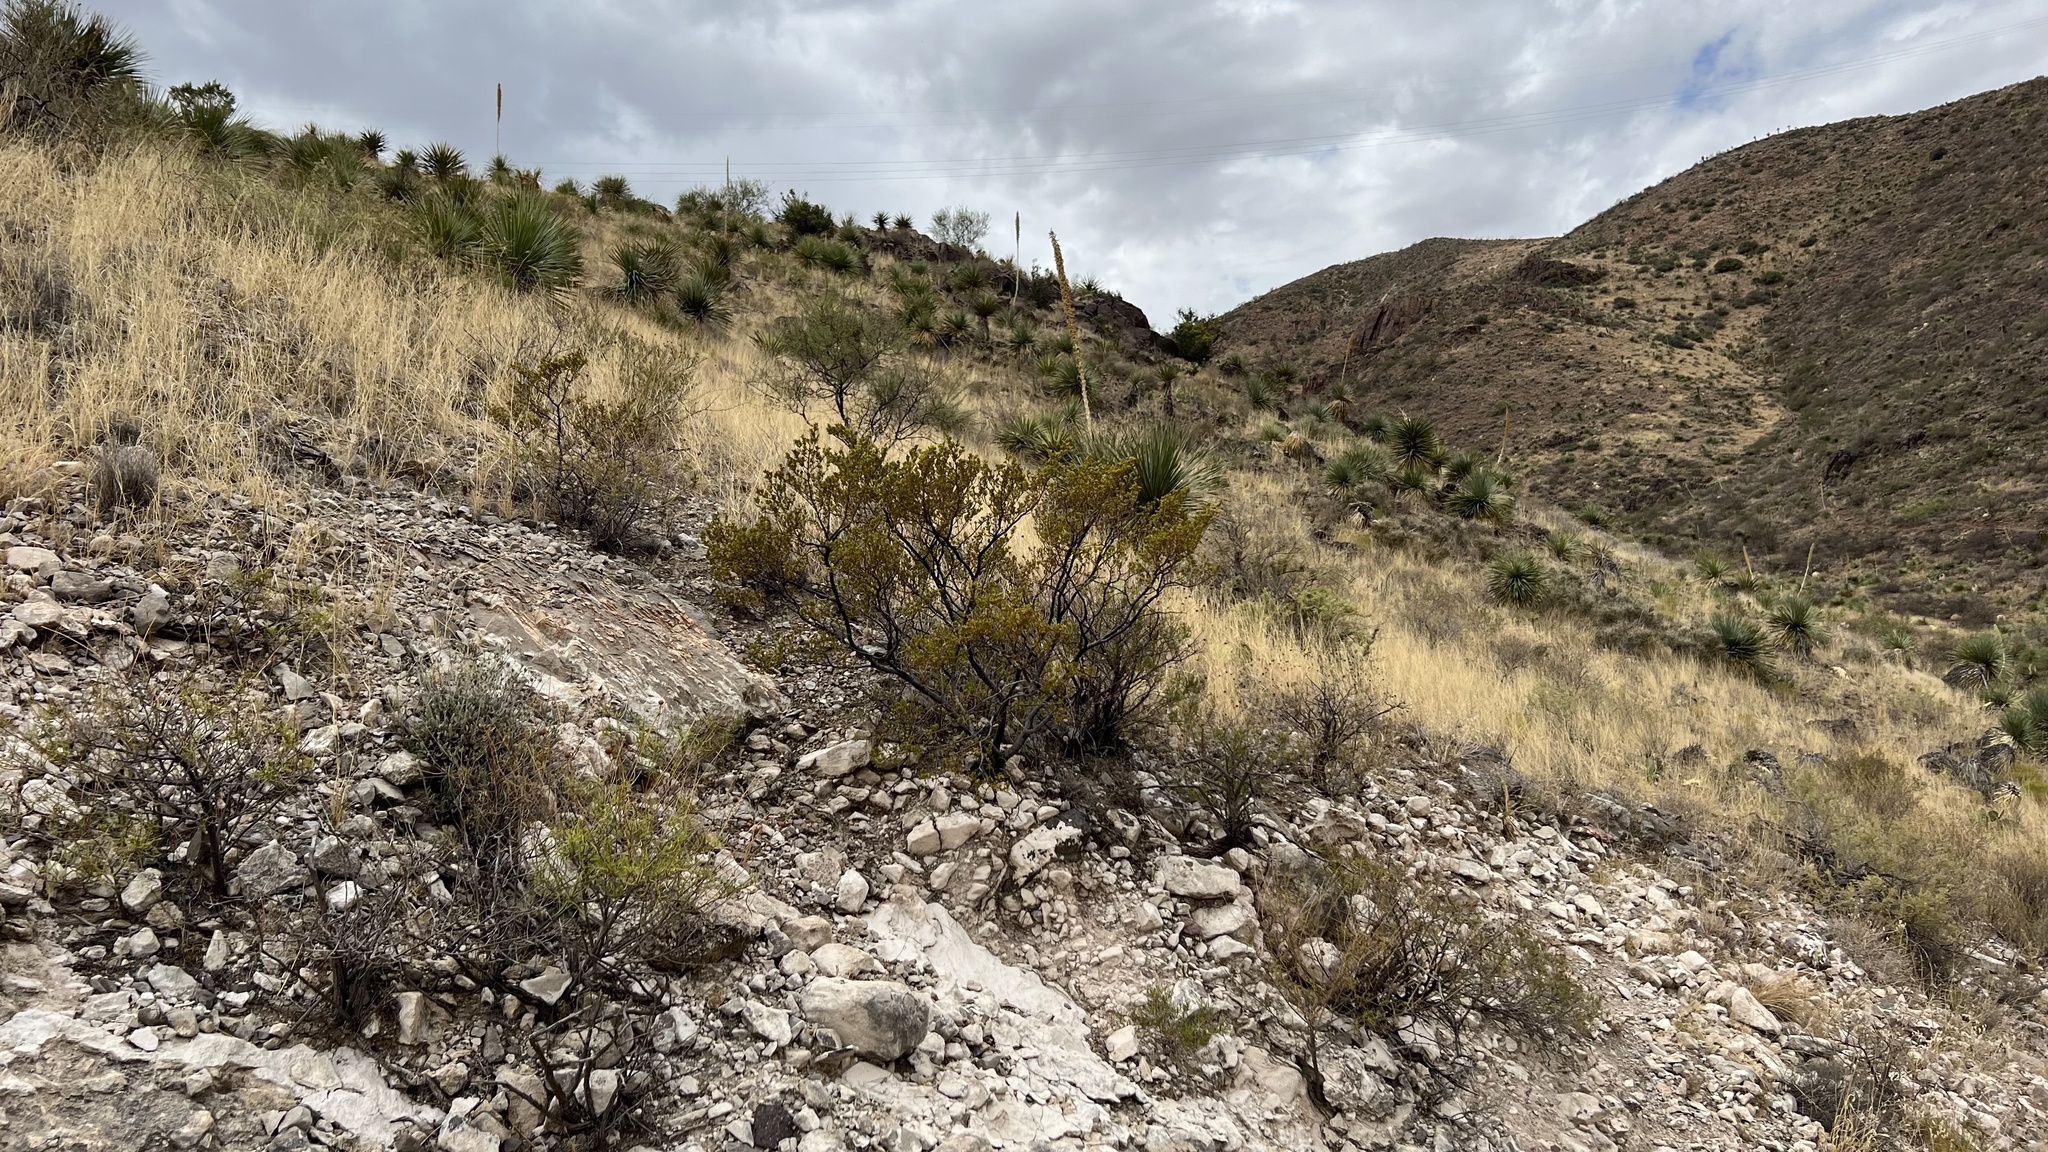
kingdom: Plantae
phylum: Tracheophyta
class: Magnoliopsida
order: Zygophyllales
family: Zygophyllaceae
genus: Larrea
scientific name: Larrea tridentata
